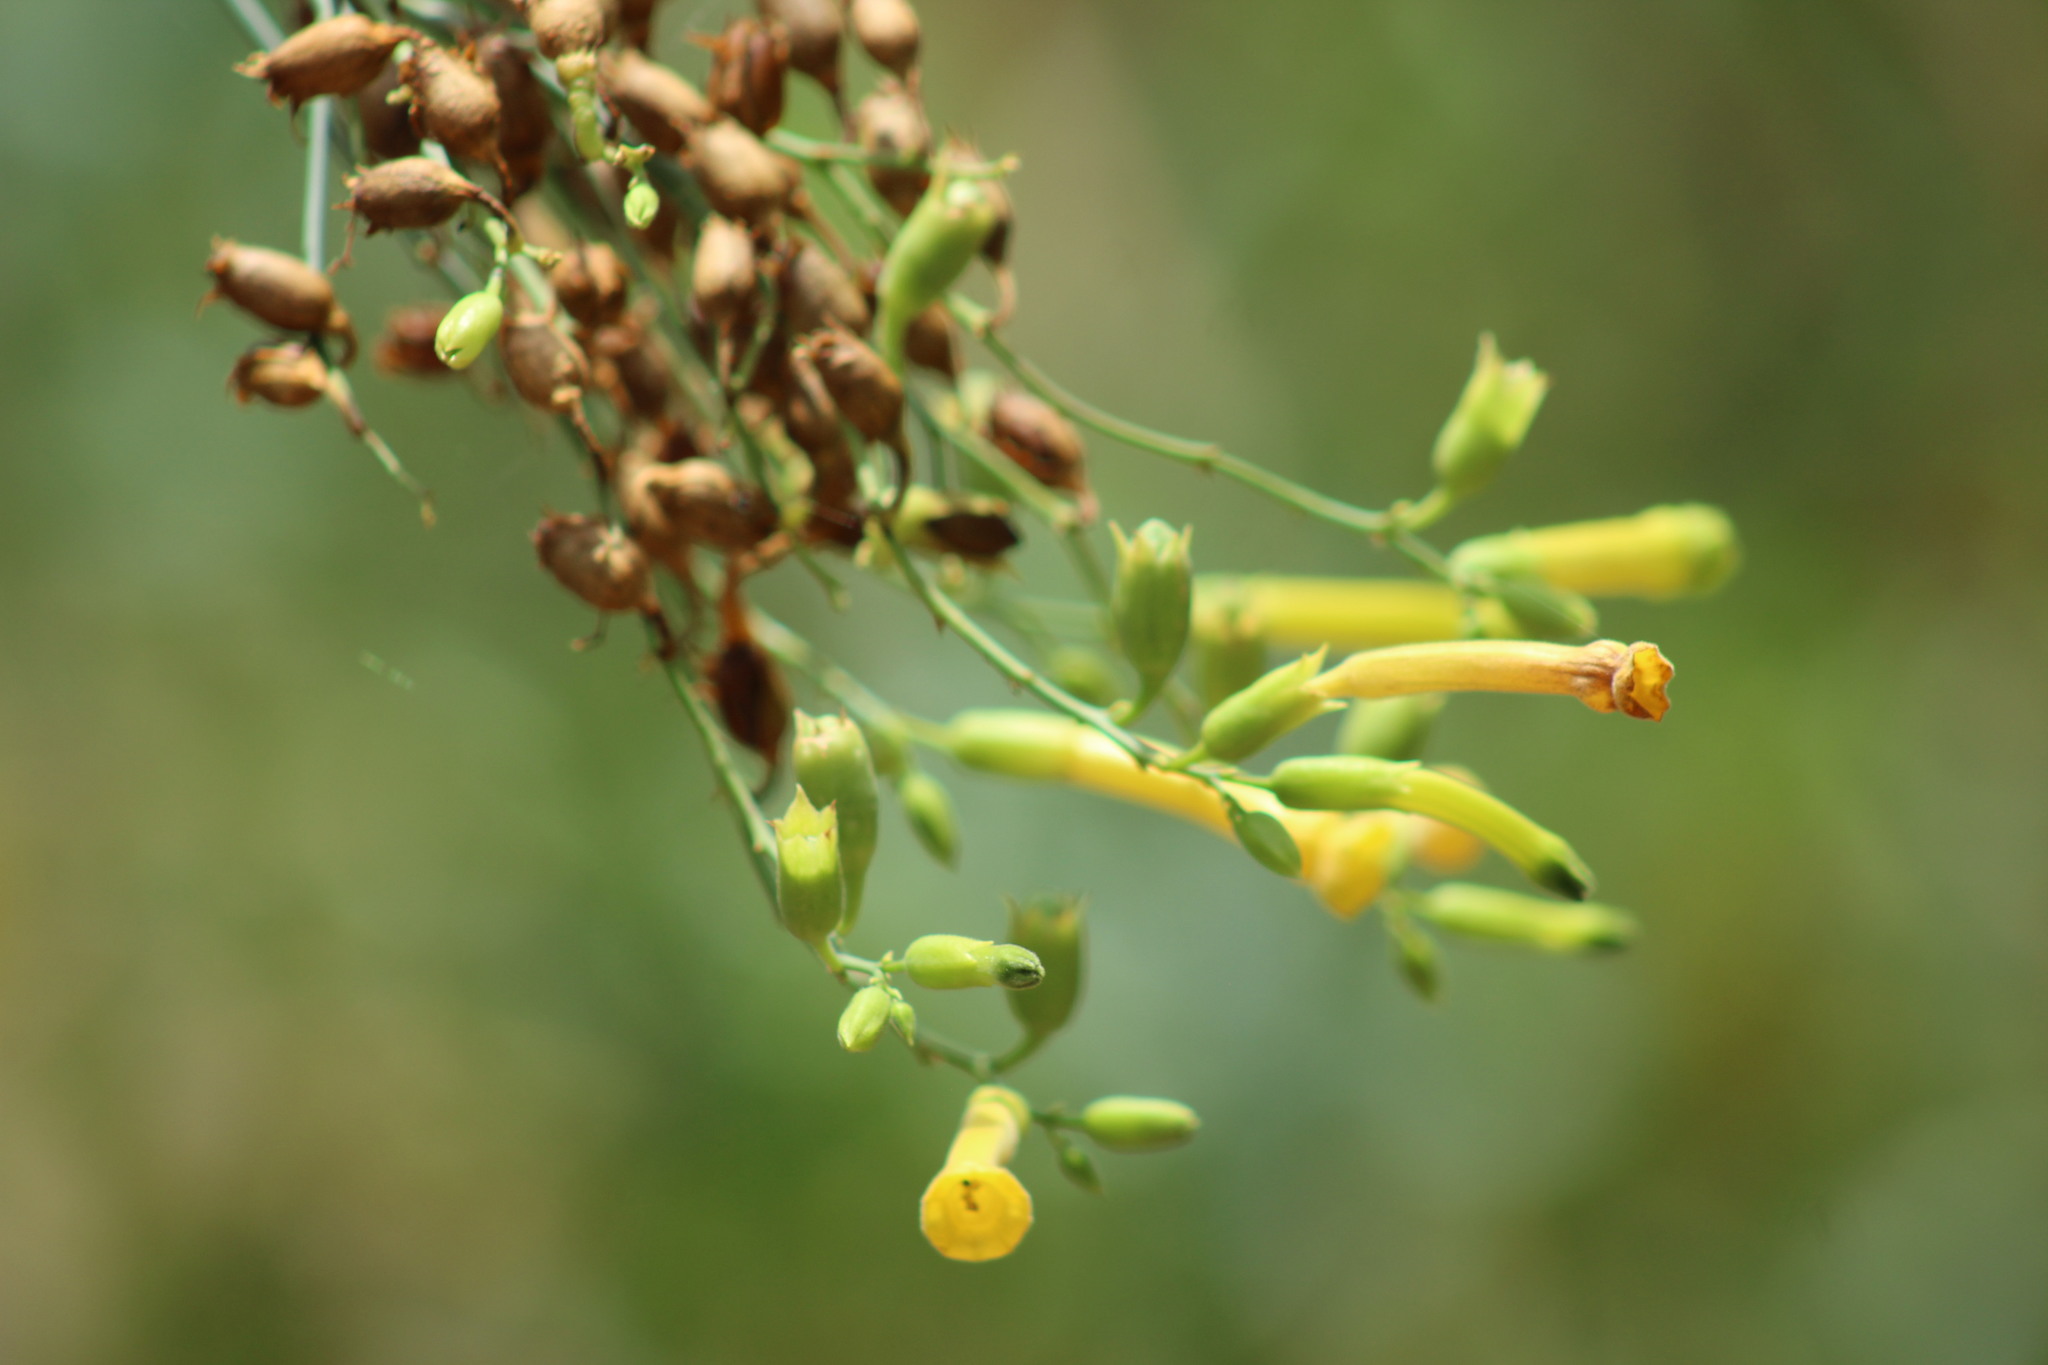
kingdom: Plantae
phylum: Tracheophyta
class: Magnoliopsida
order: Solanales
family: Solanaceae
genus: Nicotiana
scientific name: Nicotiana glauca
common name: Tree tobacco
